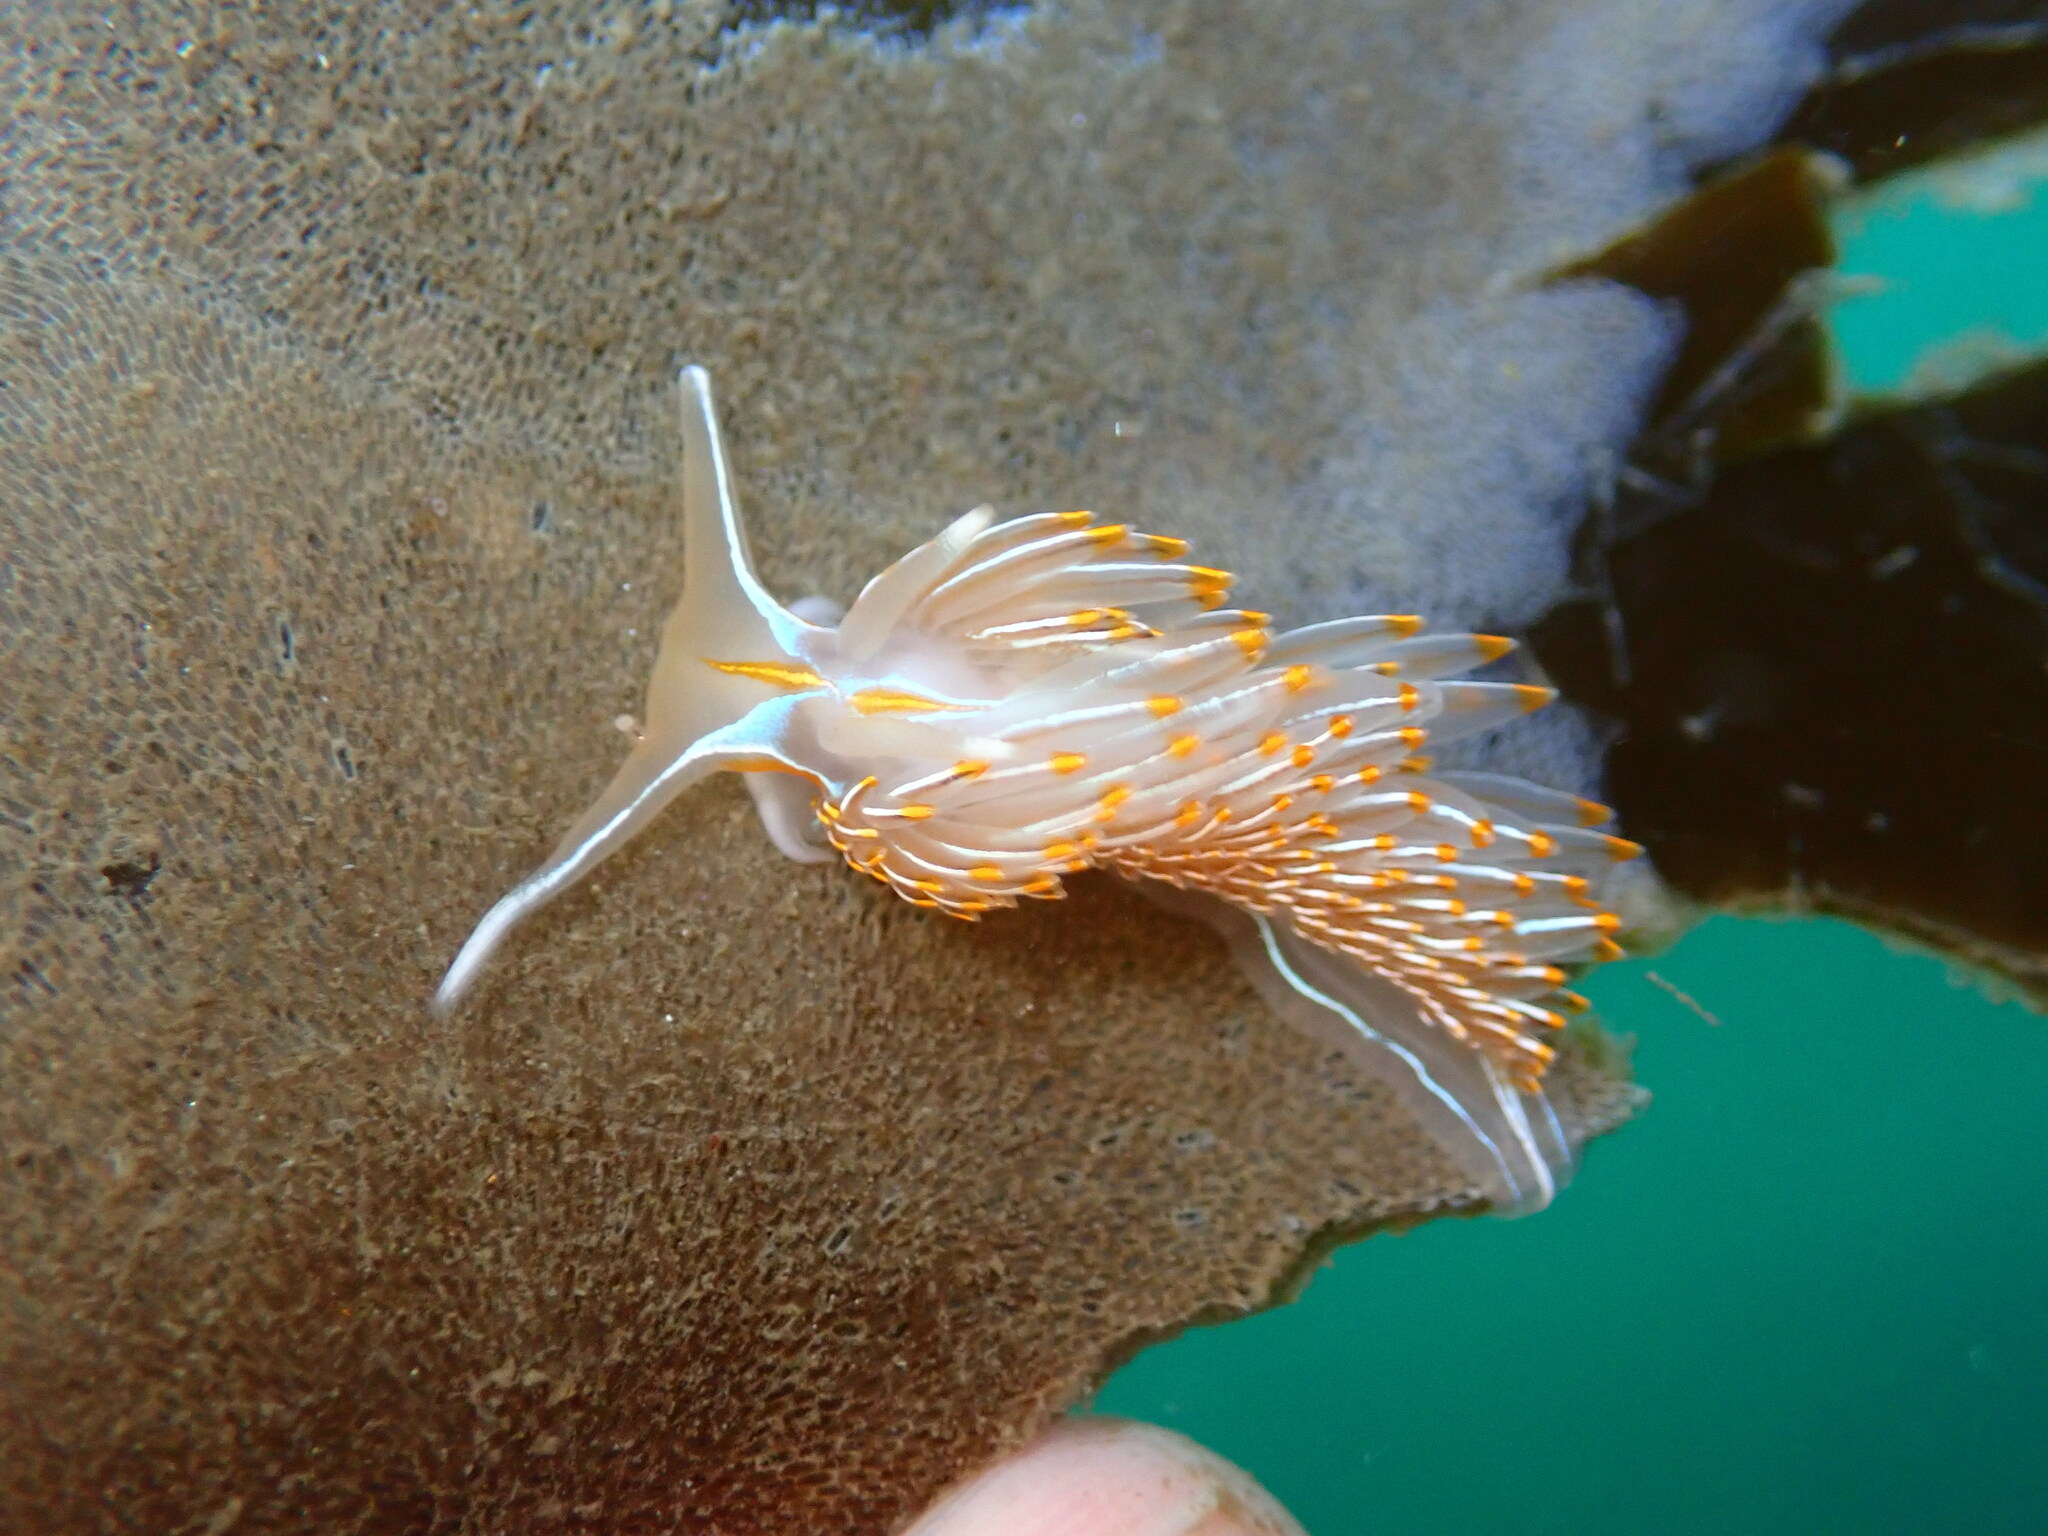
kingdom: Animalia
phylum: Mollusca
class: Gastropoda
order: Nudibranchia
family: Myrrhinidae
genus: Hermissenda
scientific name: Hermissenda crassicornis
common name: Hermissenda
